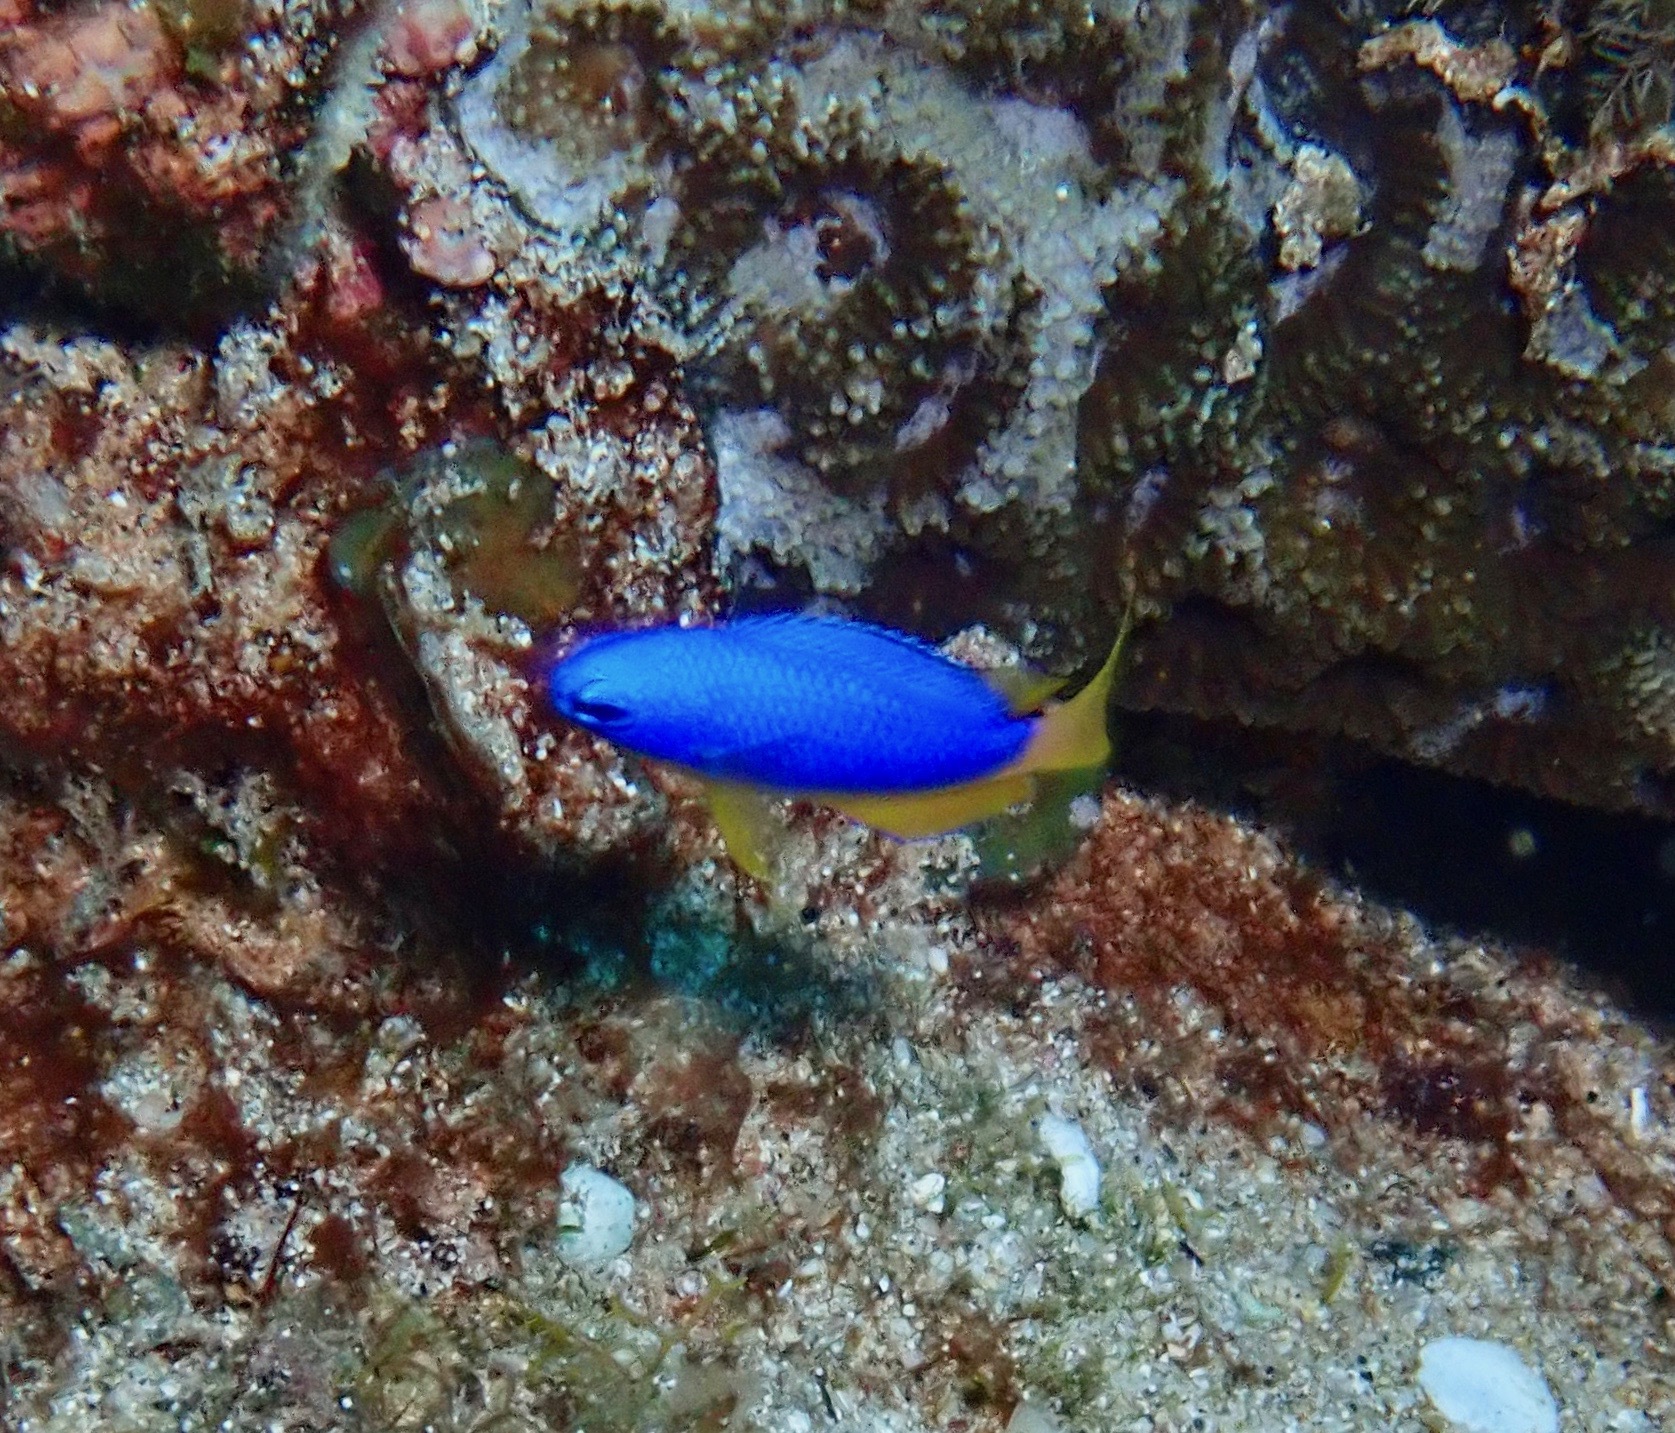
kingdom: Animalia
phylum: Chordata
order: Perciformes
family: Pomacentridae
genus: Pomacentrus
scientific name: Pomacentrus coelestis
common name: Neon damsel
